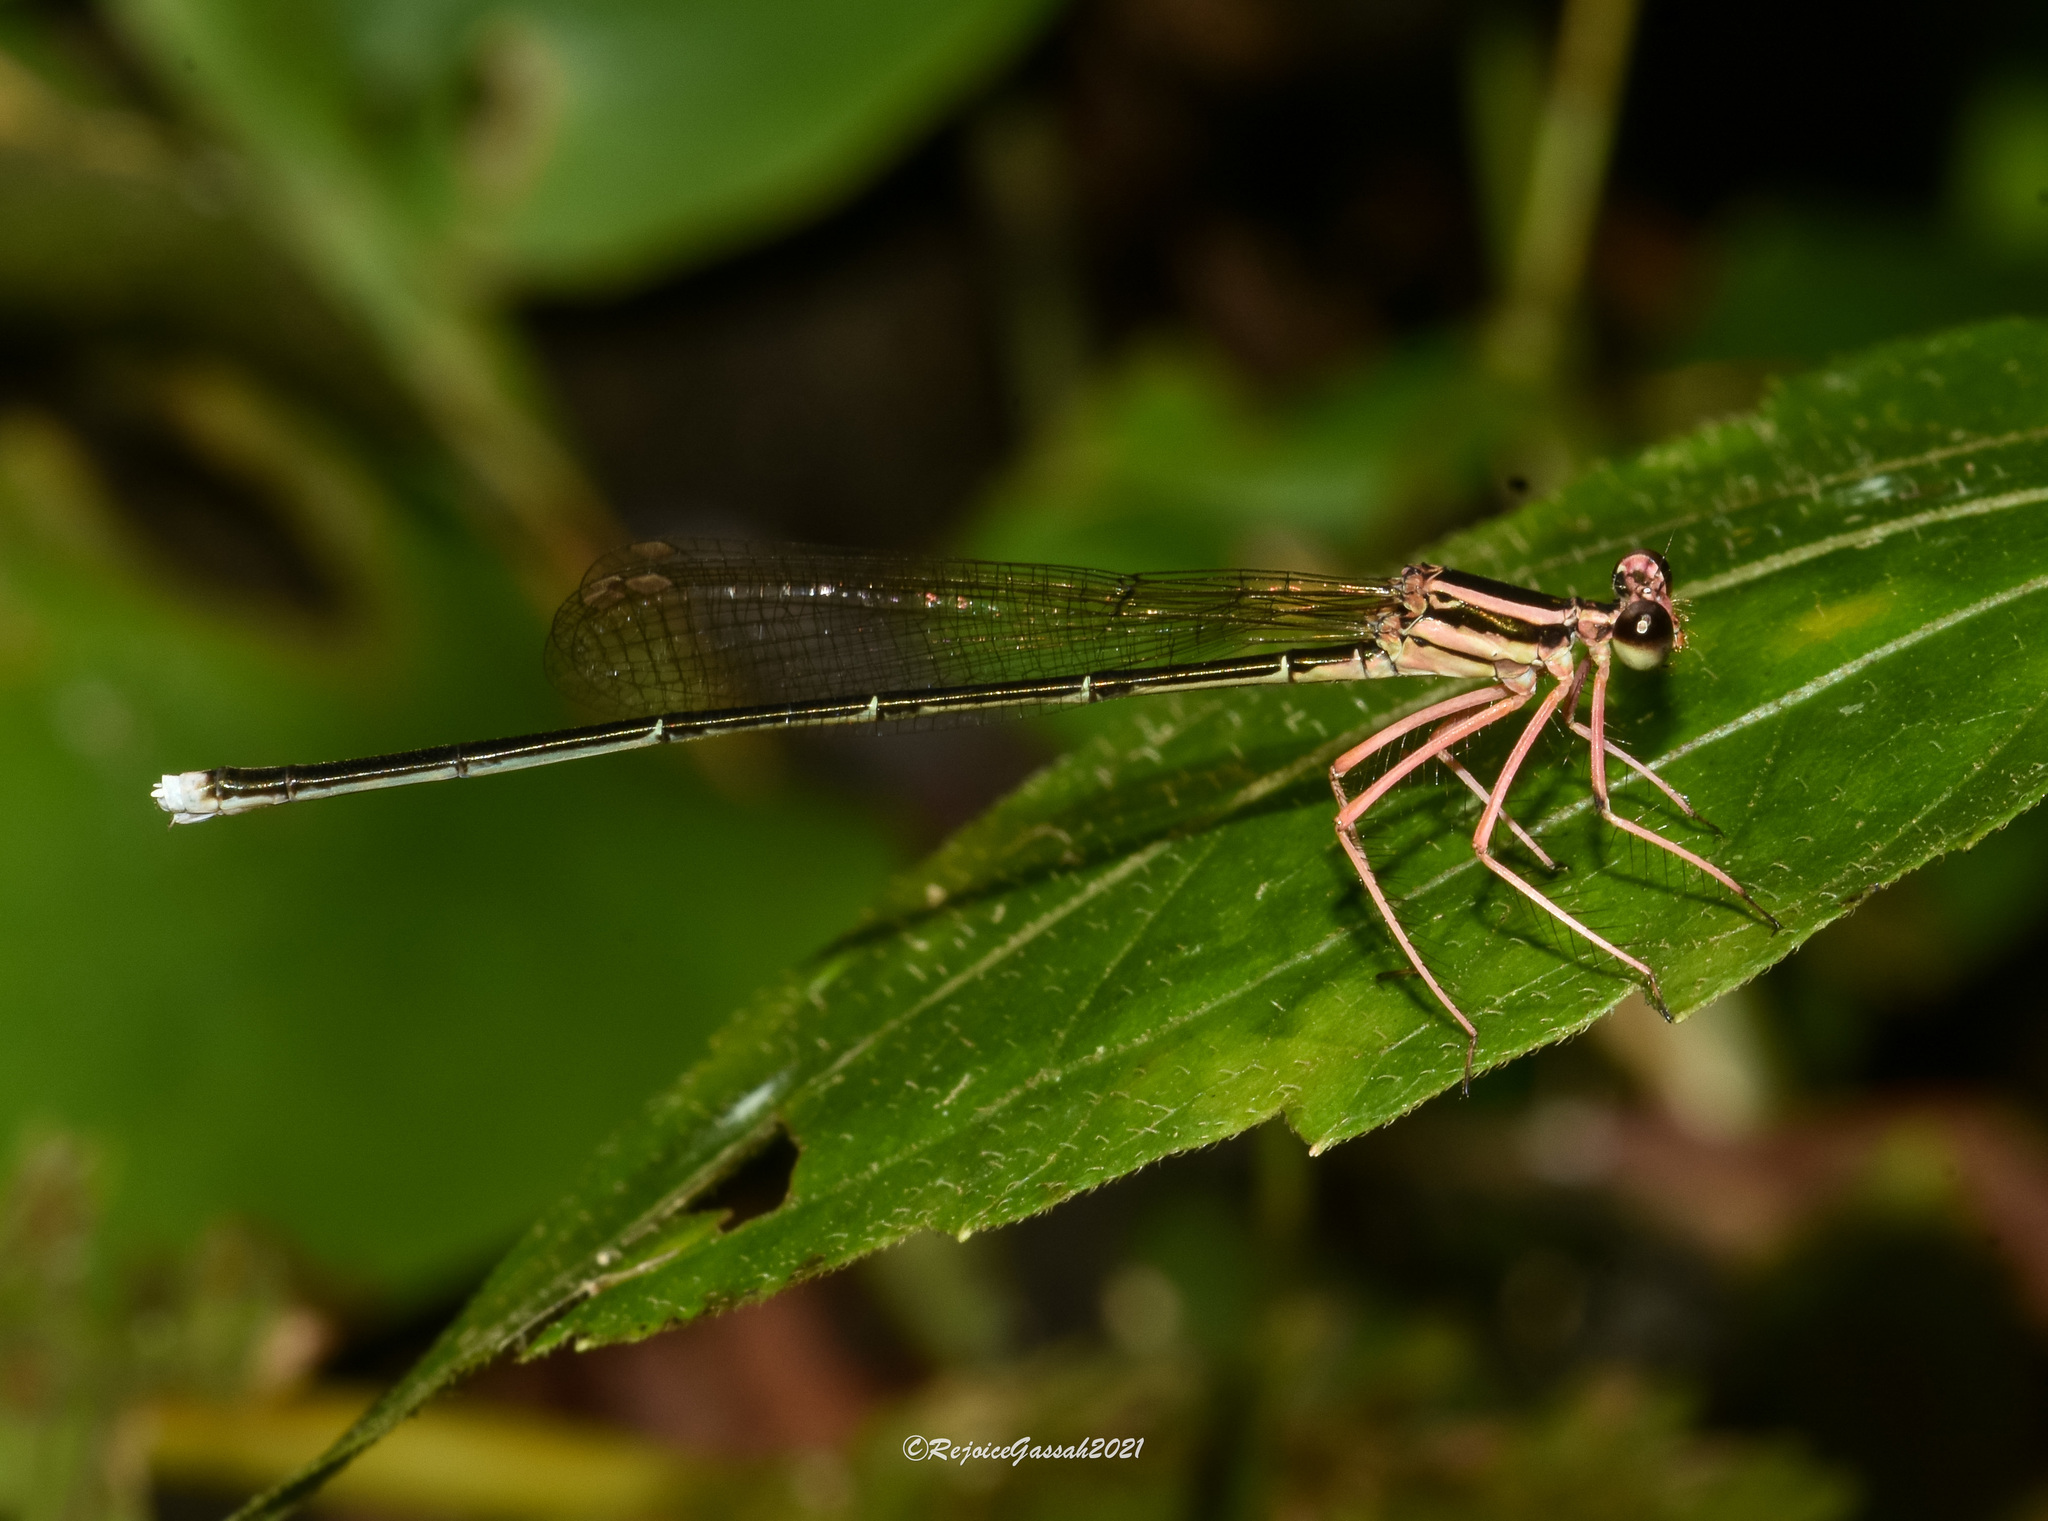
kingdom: Animalia
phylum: Arthropoda
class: Insecta
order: Odonata
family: Platycnemididae
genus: Pseudocopera
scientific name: Pseudocopera ciliata
